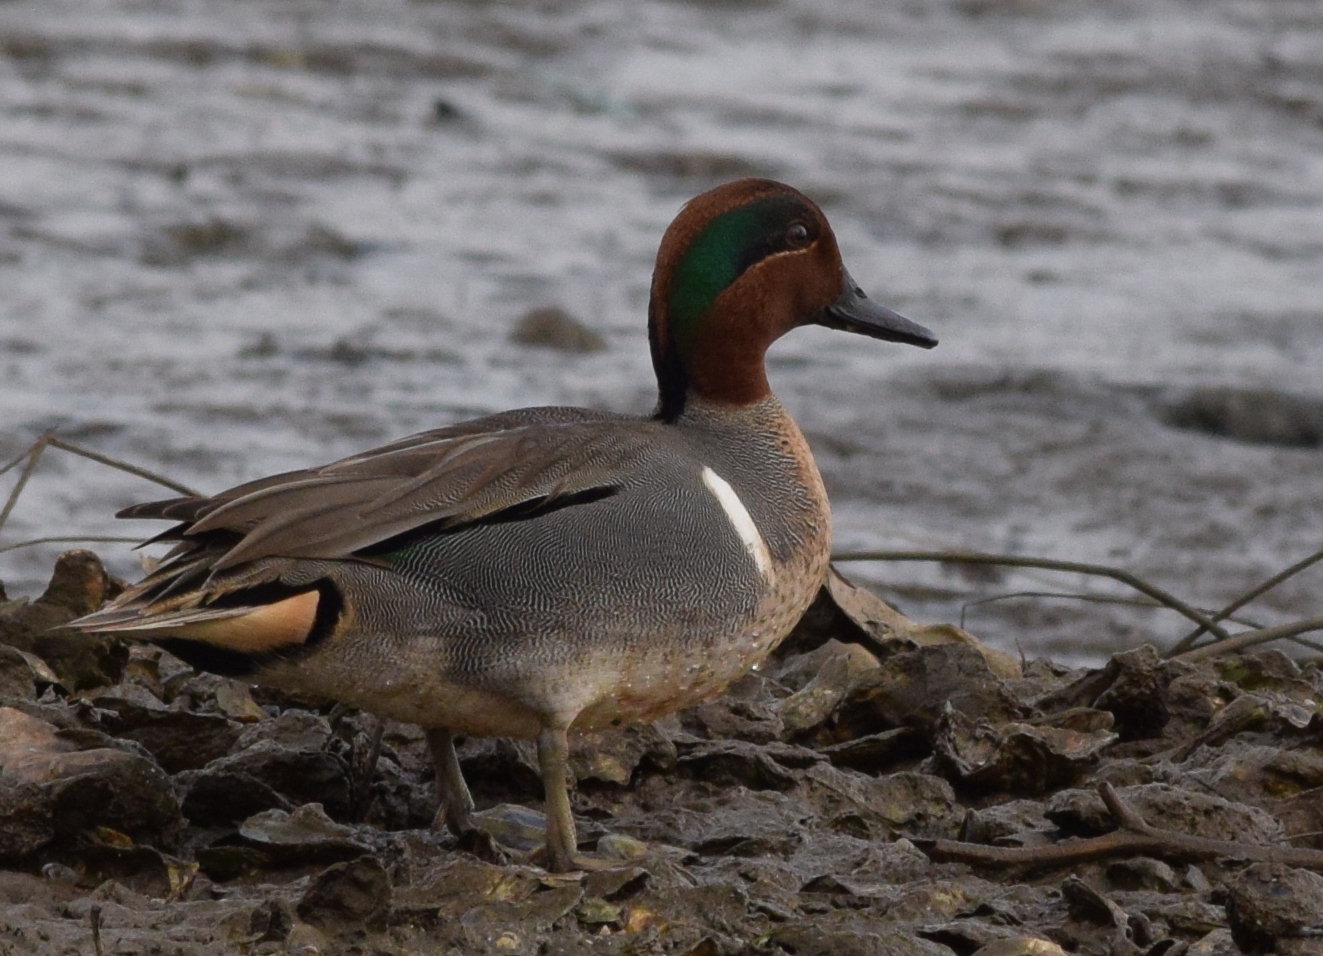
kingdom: Animalia
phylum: Chordata
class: Aves
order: Anseriformes
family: Anatidae
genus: Anas
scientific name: Anas crecca
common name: Eurasian teal
